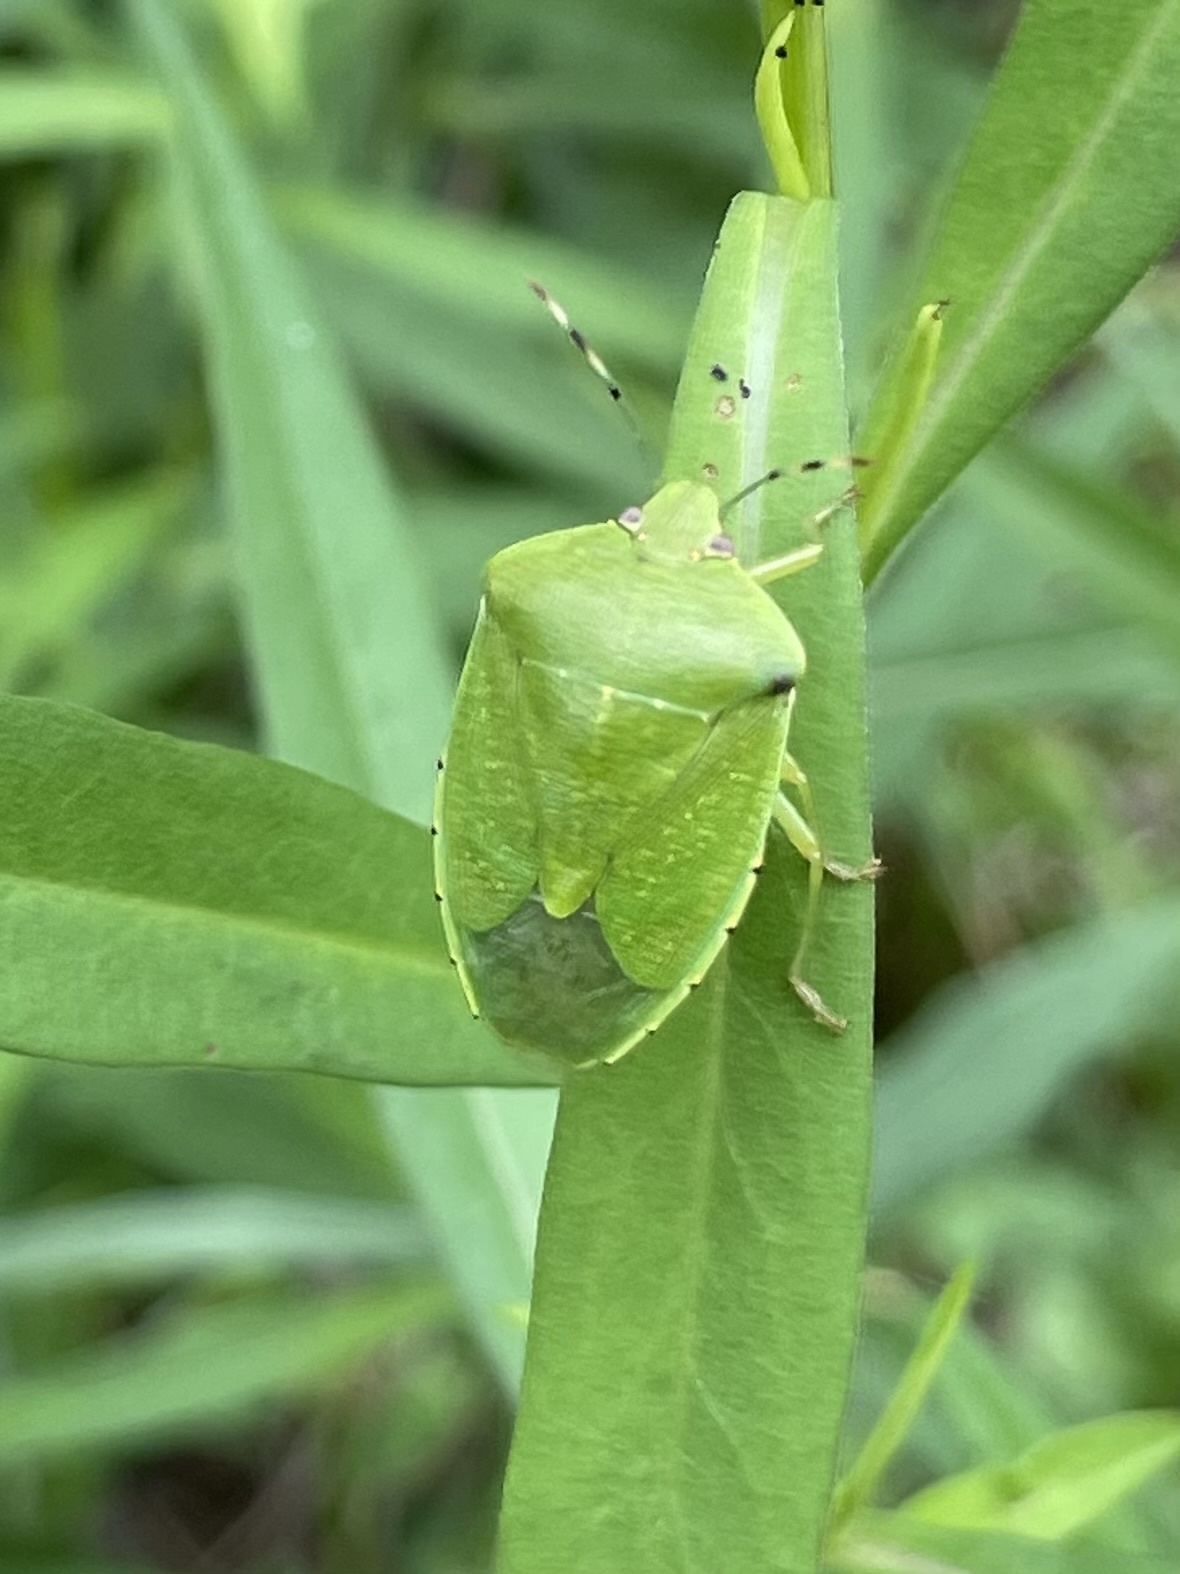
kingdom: Animalia
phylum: Arthropoda
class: Insecta
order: Hemiptera
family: Pentatomidae
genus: Chinavia
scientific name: Chinavia hilaris
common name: Green stink bug
